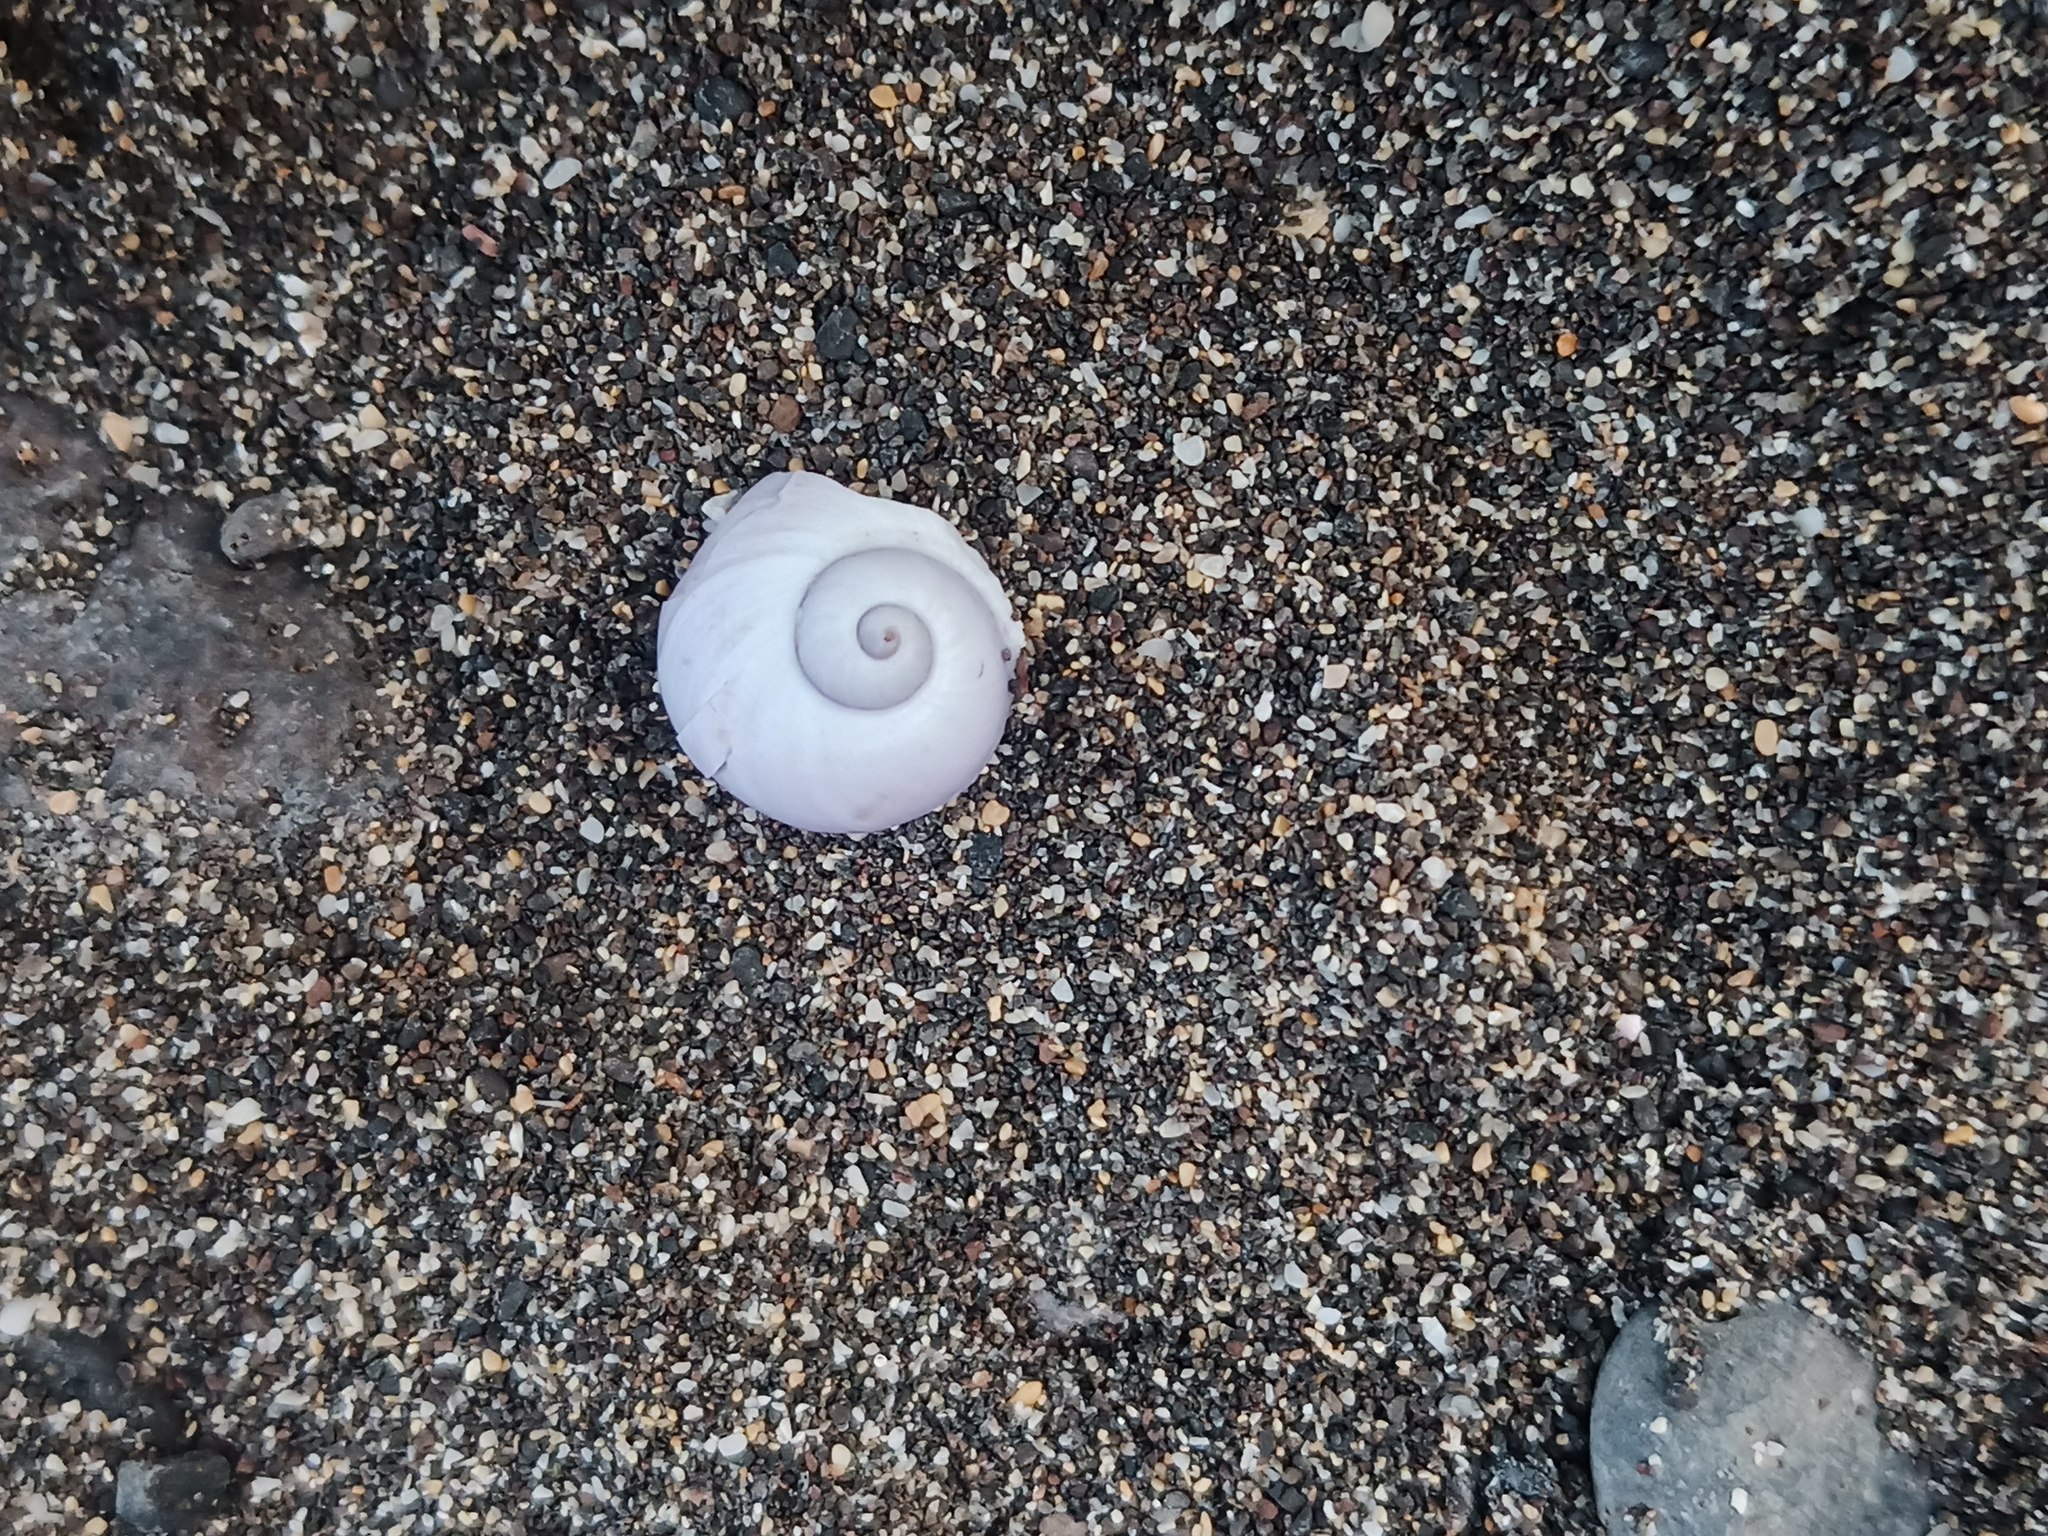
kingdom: Animalia
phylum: Mollusca
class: Gastropoda
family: Epitoniidae
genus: Janthina
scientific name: Janthina janthina
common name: Common janthina
